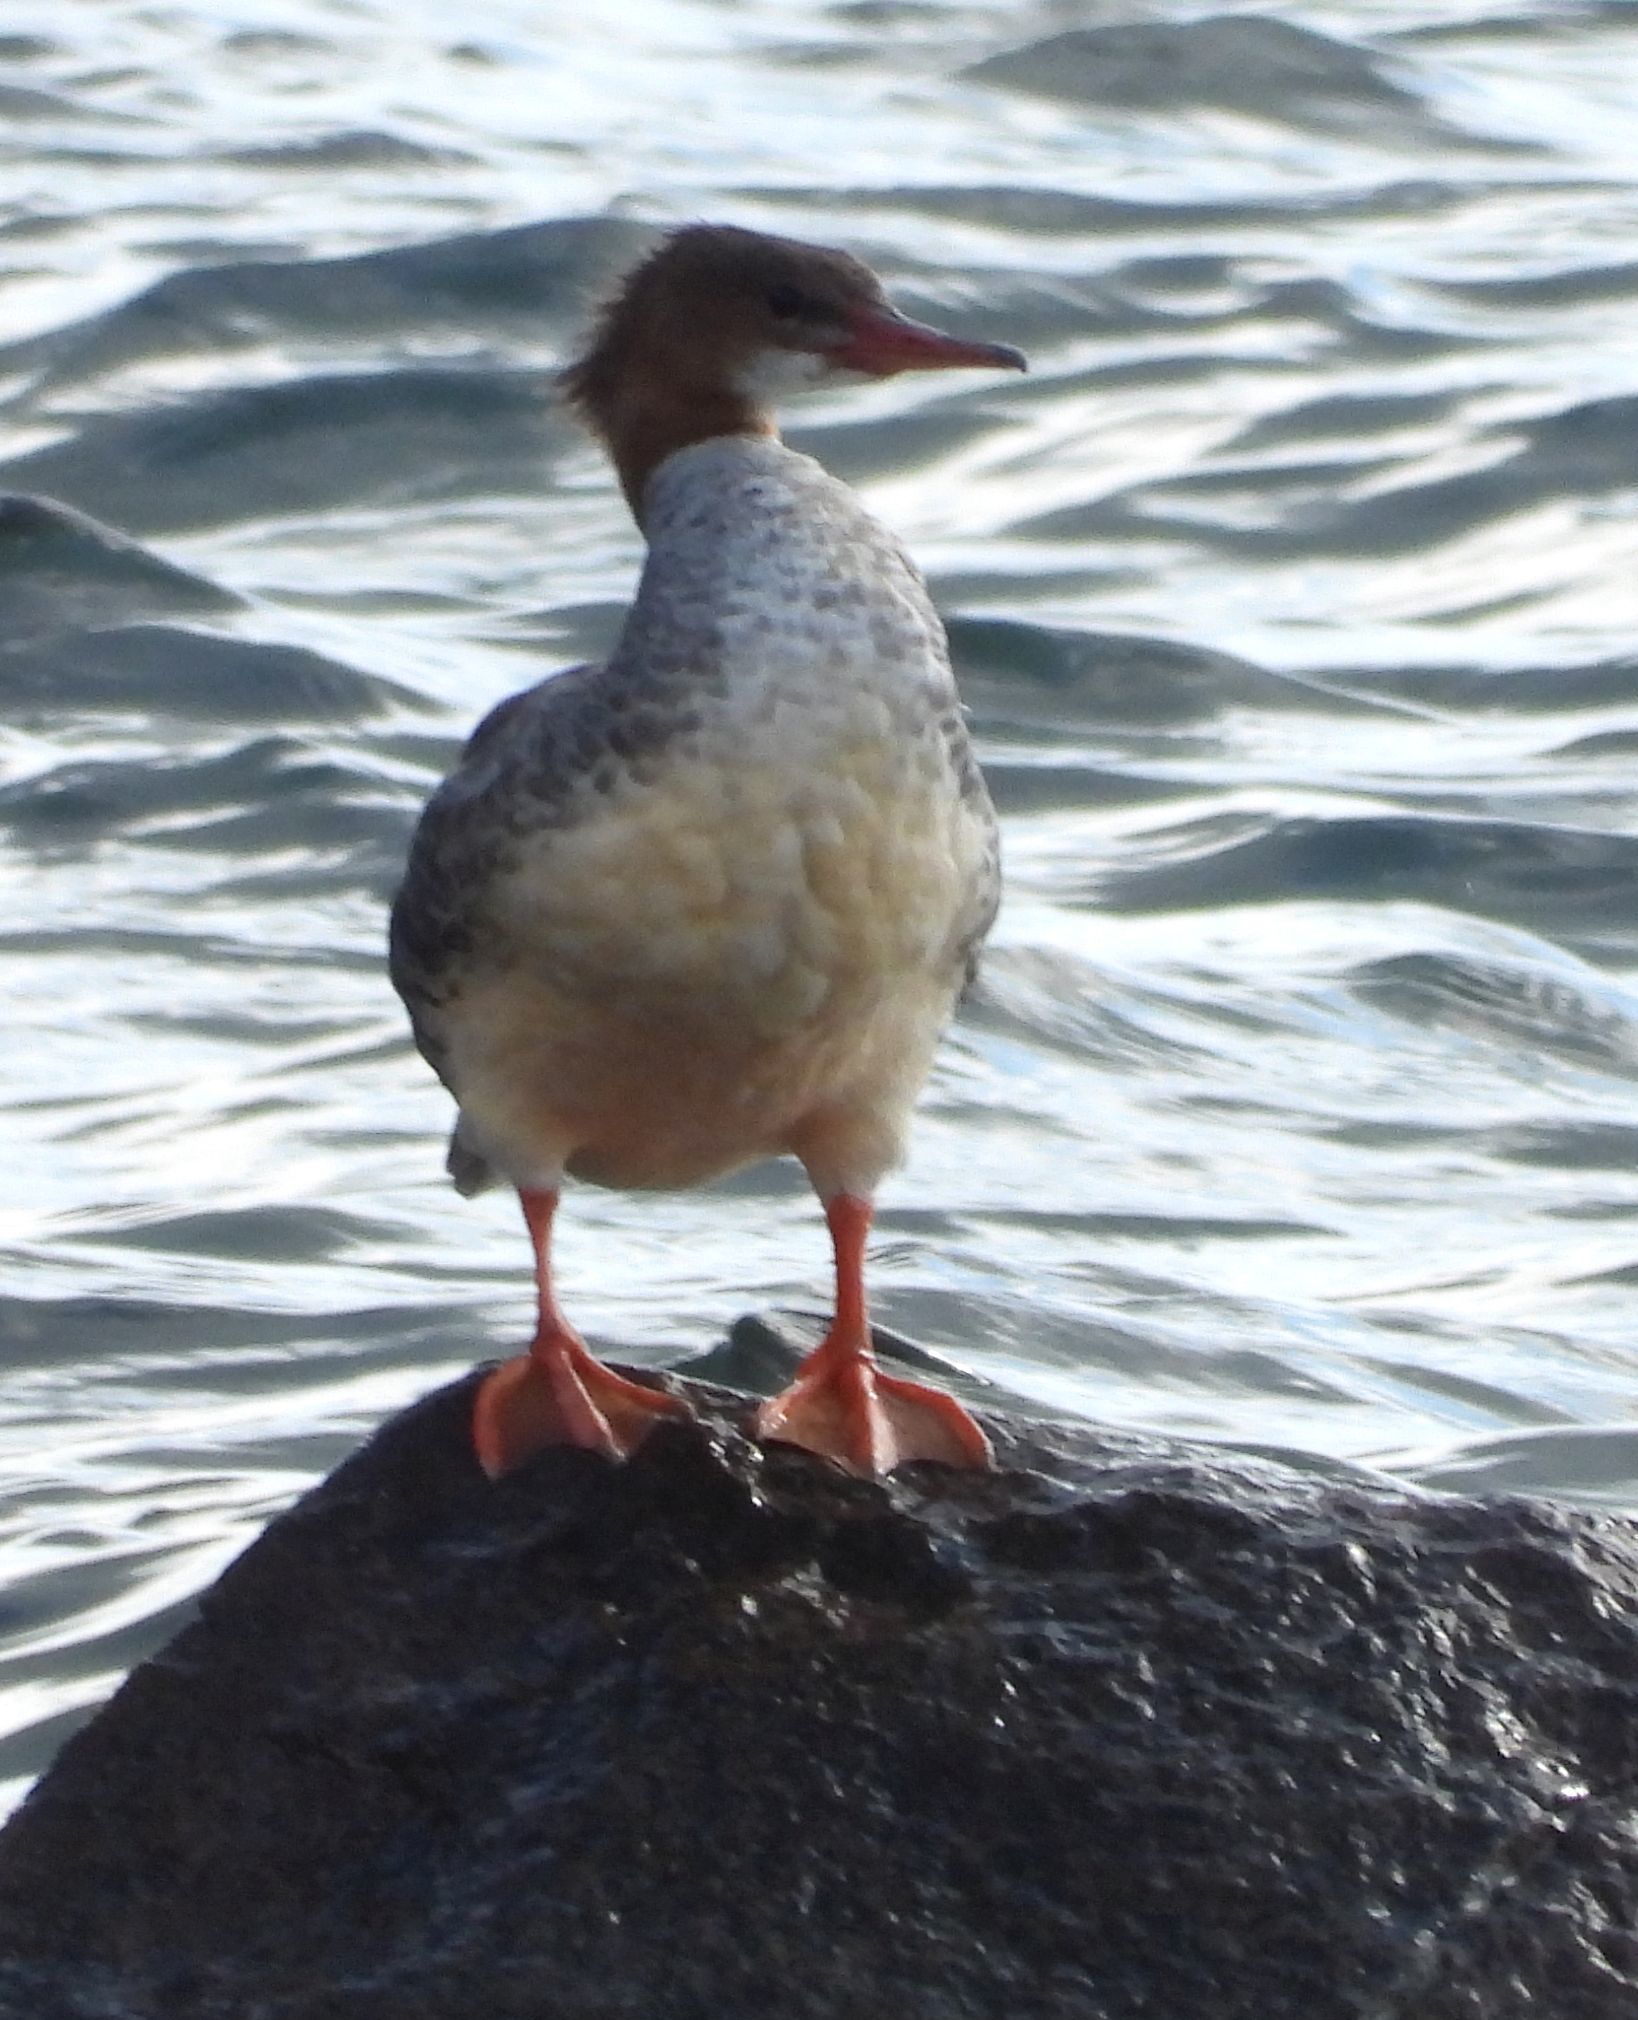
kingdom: Animalia
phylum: Chordata
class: Aves
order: Anseriformes
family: Anatidae
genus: Mergus
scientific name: Mergus merganser
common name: Common merganser
